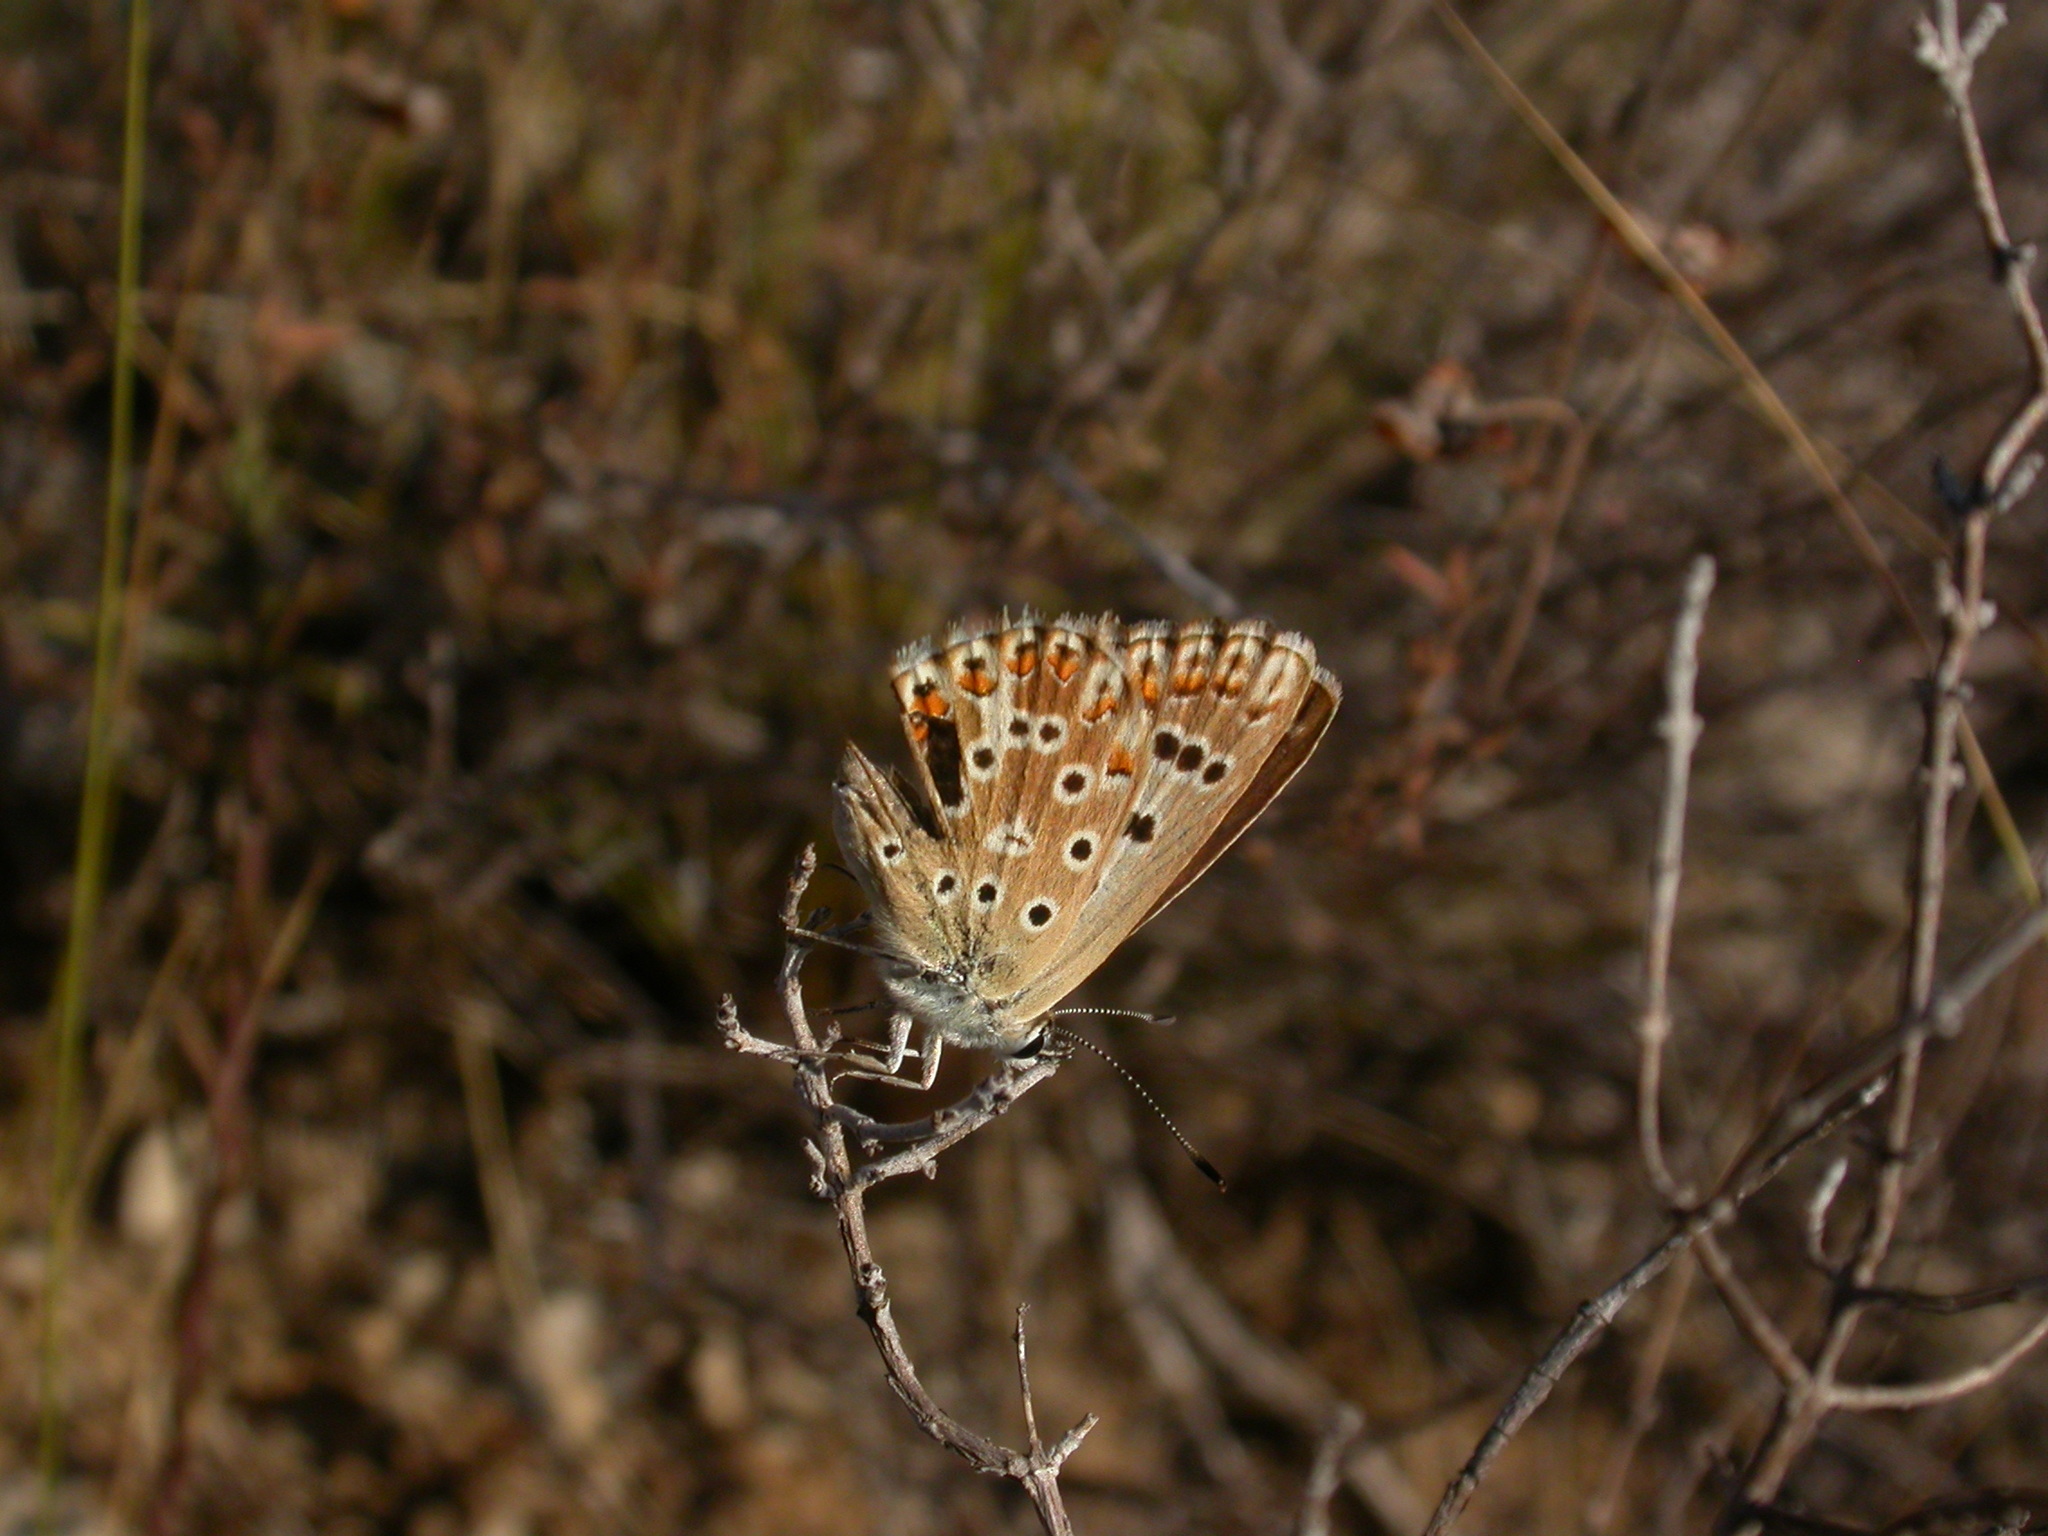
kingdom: Animalia
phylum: Arthropoda
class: Insecta
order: Lepidoptera
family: Lycaenidae
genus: Lysandra
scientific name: Lysandra hispana
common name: Provence chalkhill blue
